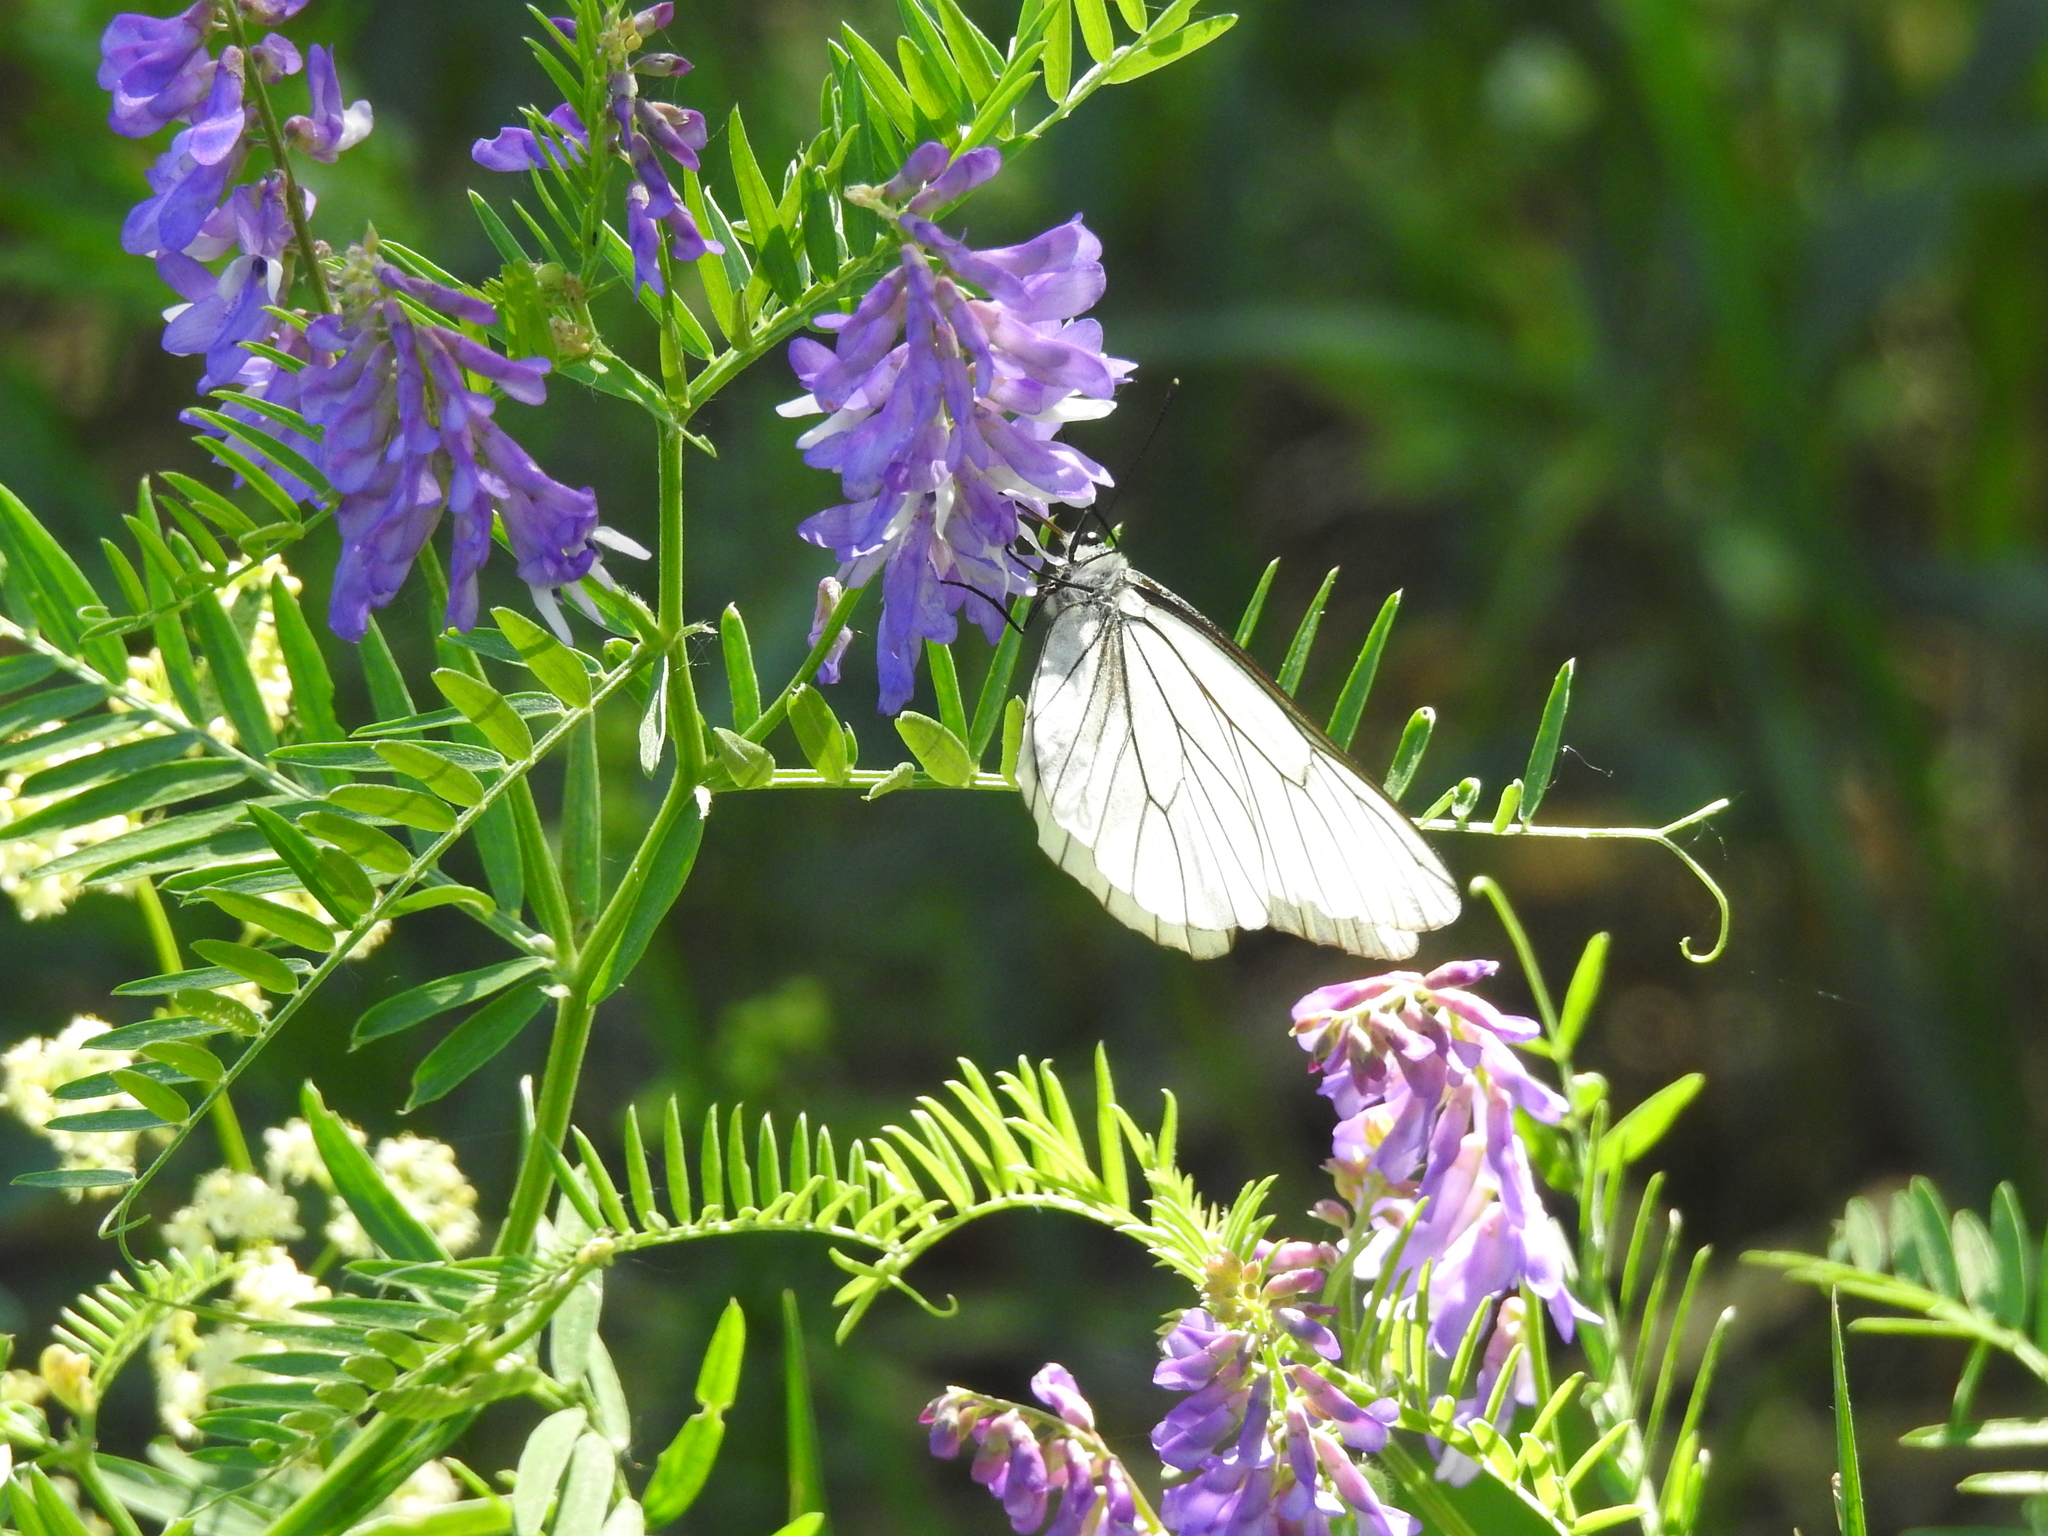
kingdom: Animalia
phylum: Arthropoda
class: Insecta
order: Lepidoptera
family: Pieridae
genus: Aporia
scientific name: Aporia crataegi
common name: Black-veined white
